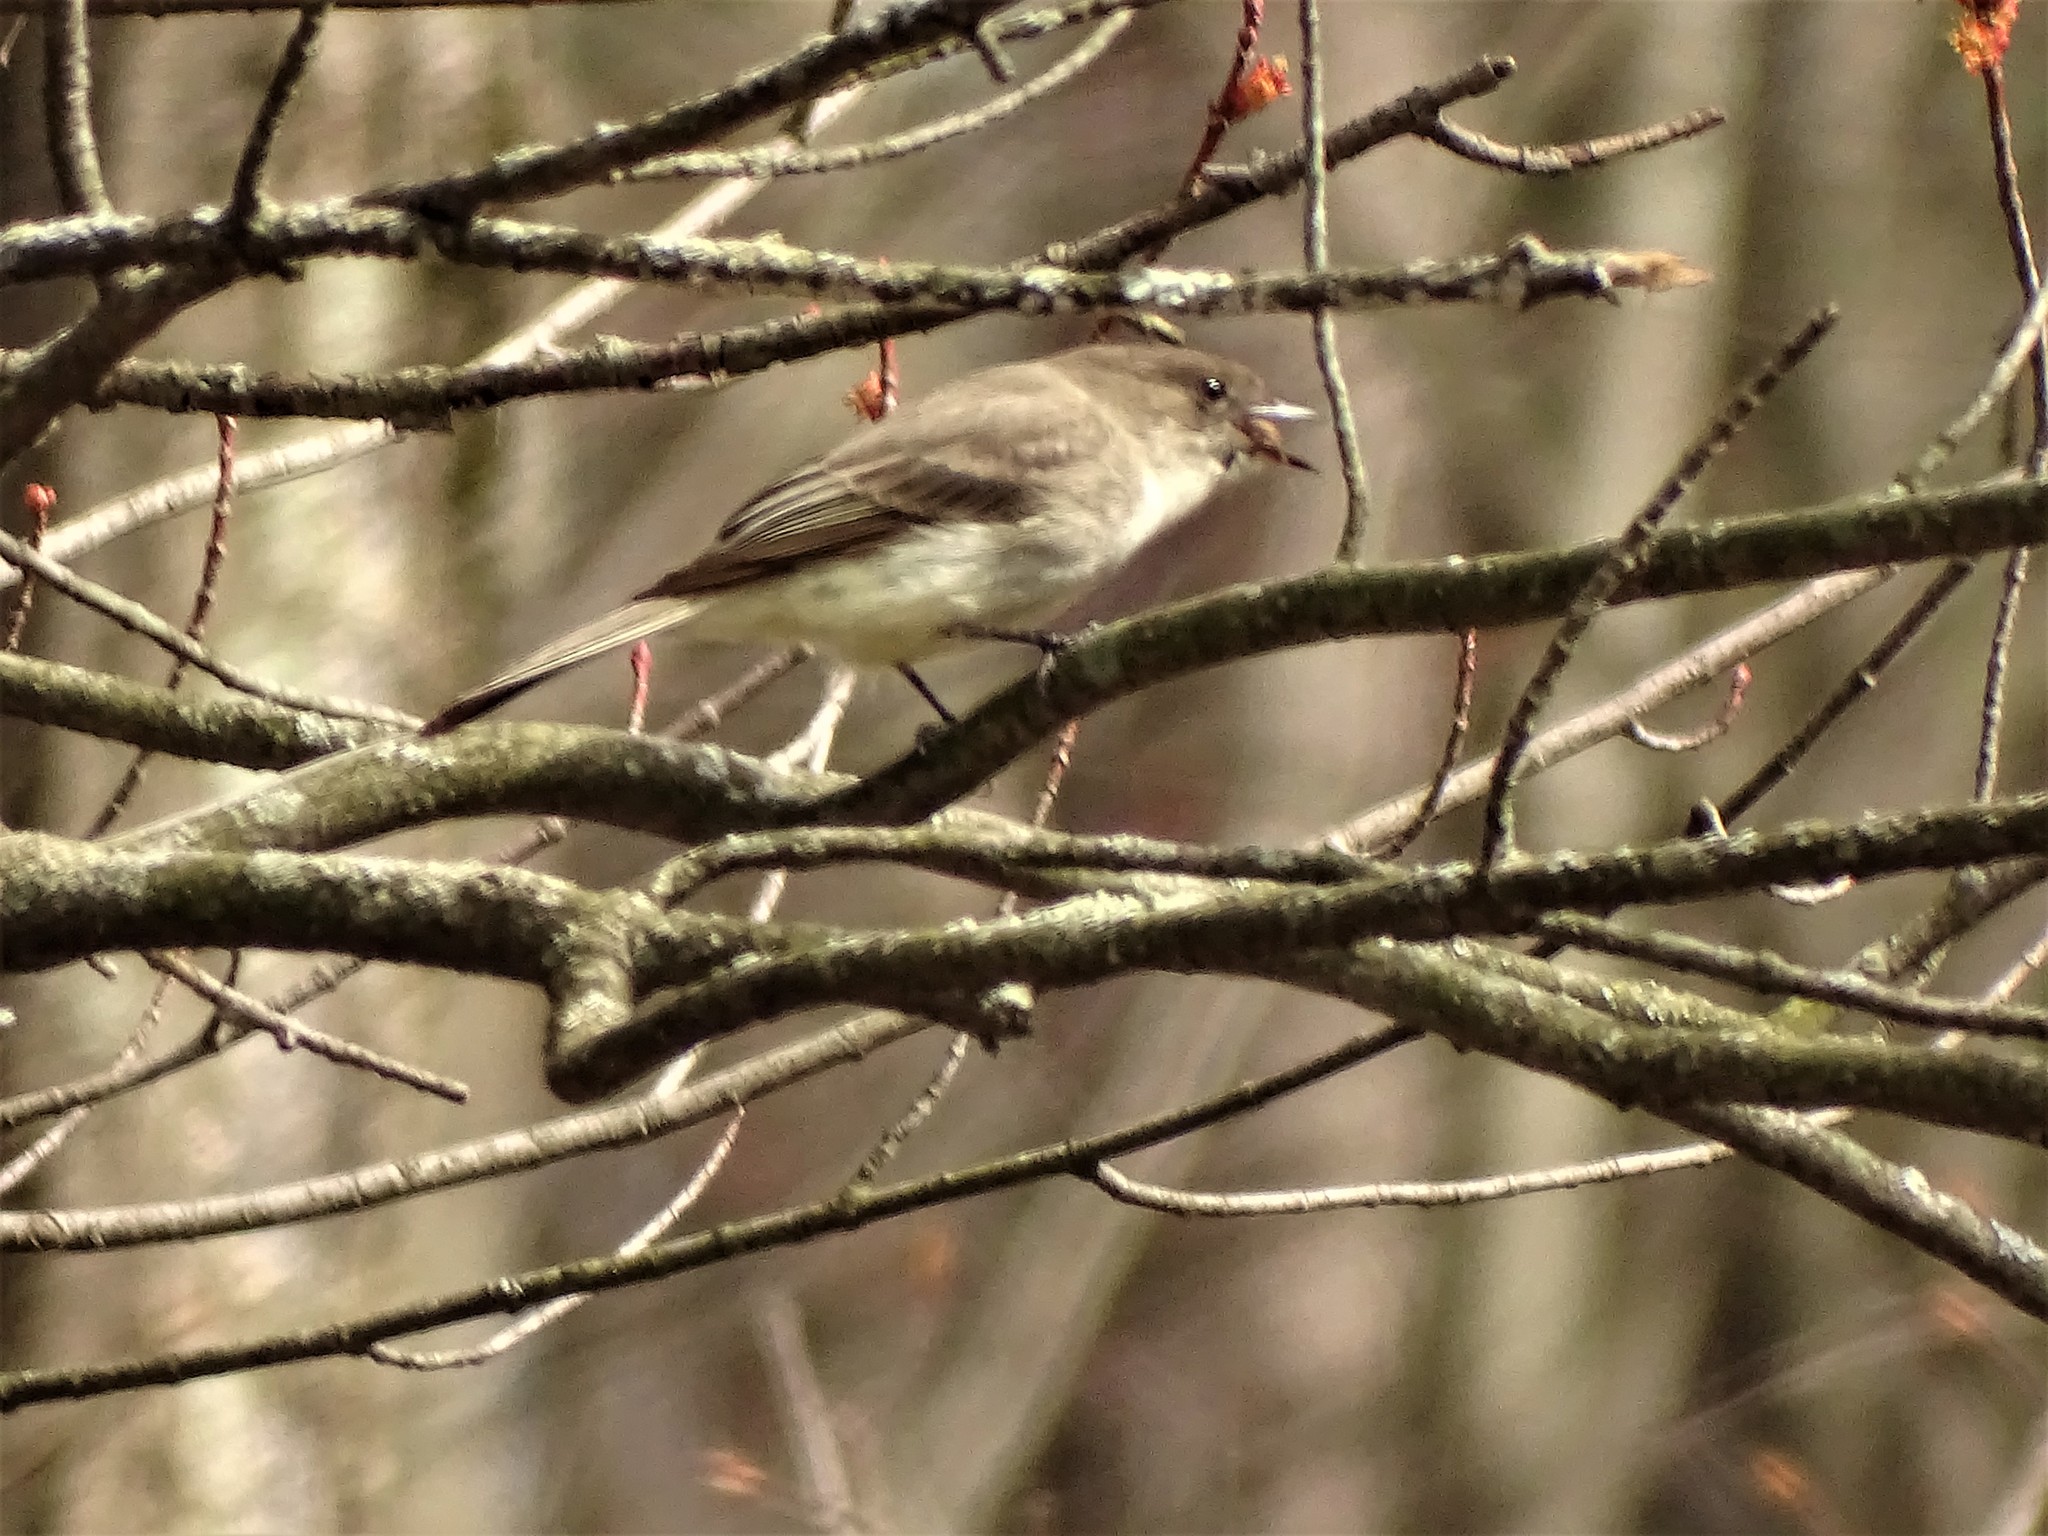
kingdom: Animalia
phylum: Chordata
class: Aves
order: Passeriformes
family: Tyrannidae
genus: Sayornis
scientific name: Sayornis phoebe
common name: Eastern phoebe
